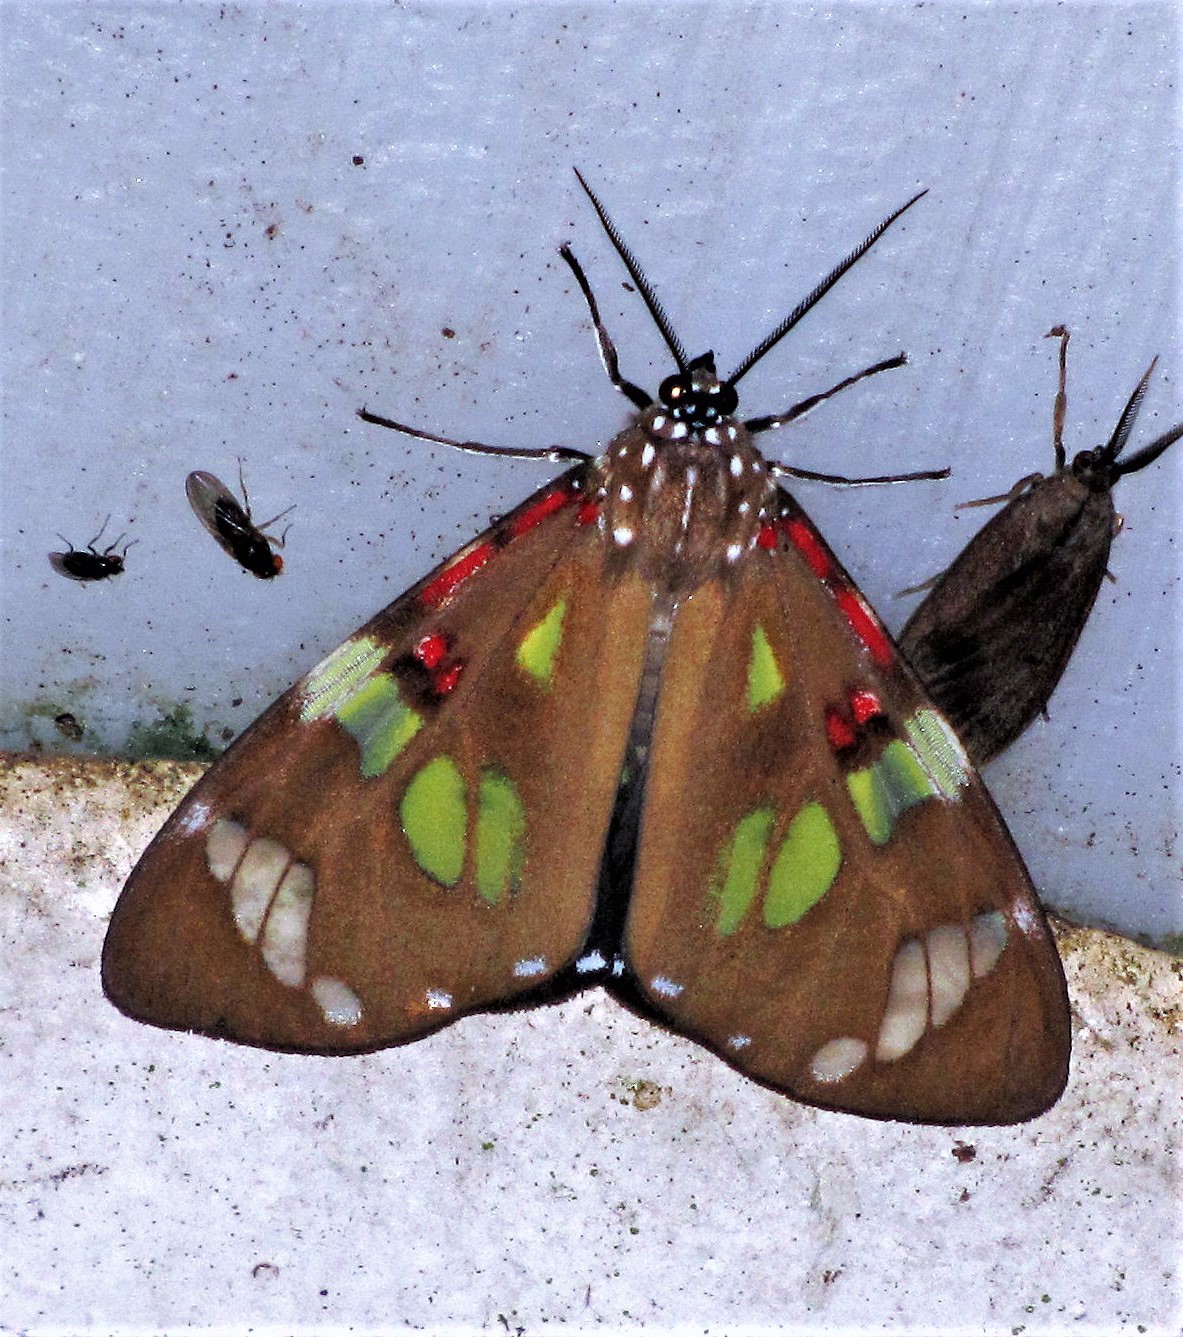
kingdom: Animalia
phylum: Arthropoda
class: Insecta
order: Lepidoptera
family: Erebidae
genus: Phaloe
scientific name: Phaloe cruenta
